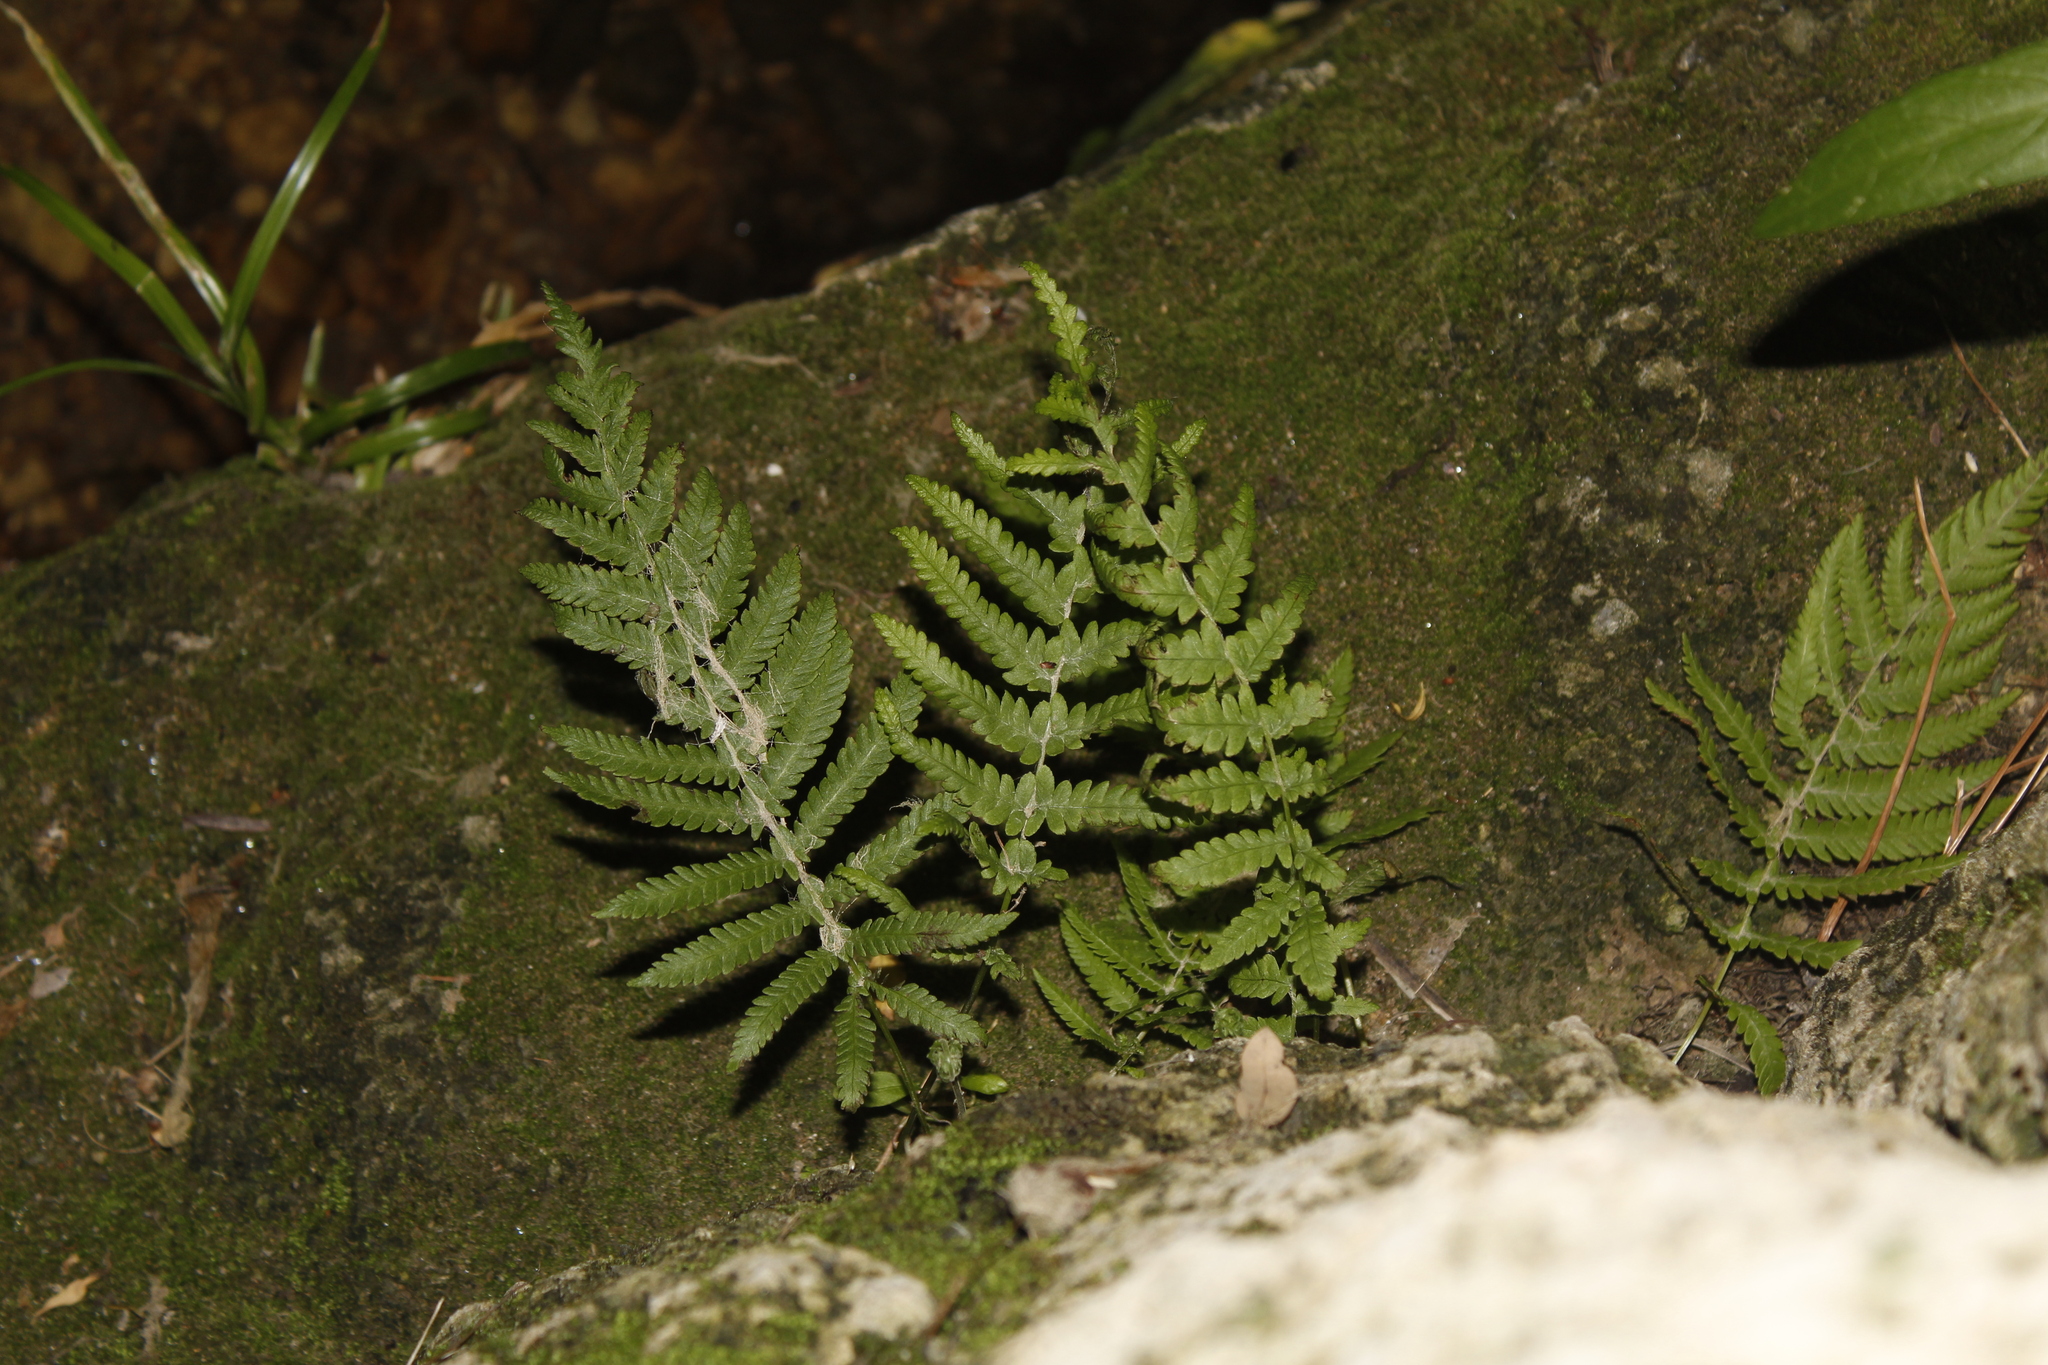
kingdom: Plantae
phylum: Tracheophyta
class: Polypodiopsida
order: Polypodiales
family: Thelypteridaceae
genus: Pelazoneuron
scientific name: Pelazoneuron ovatum
